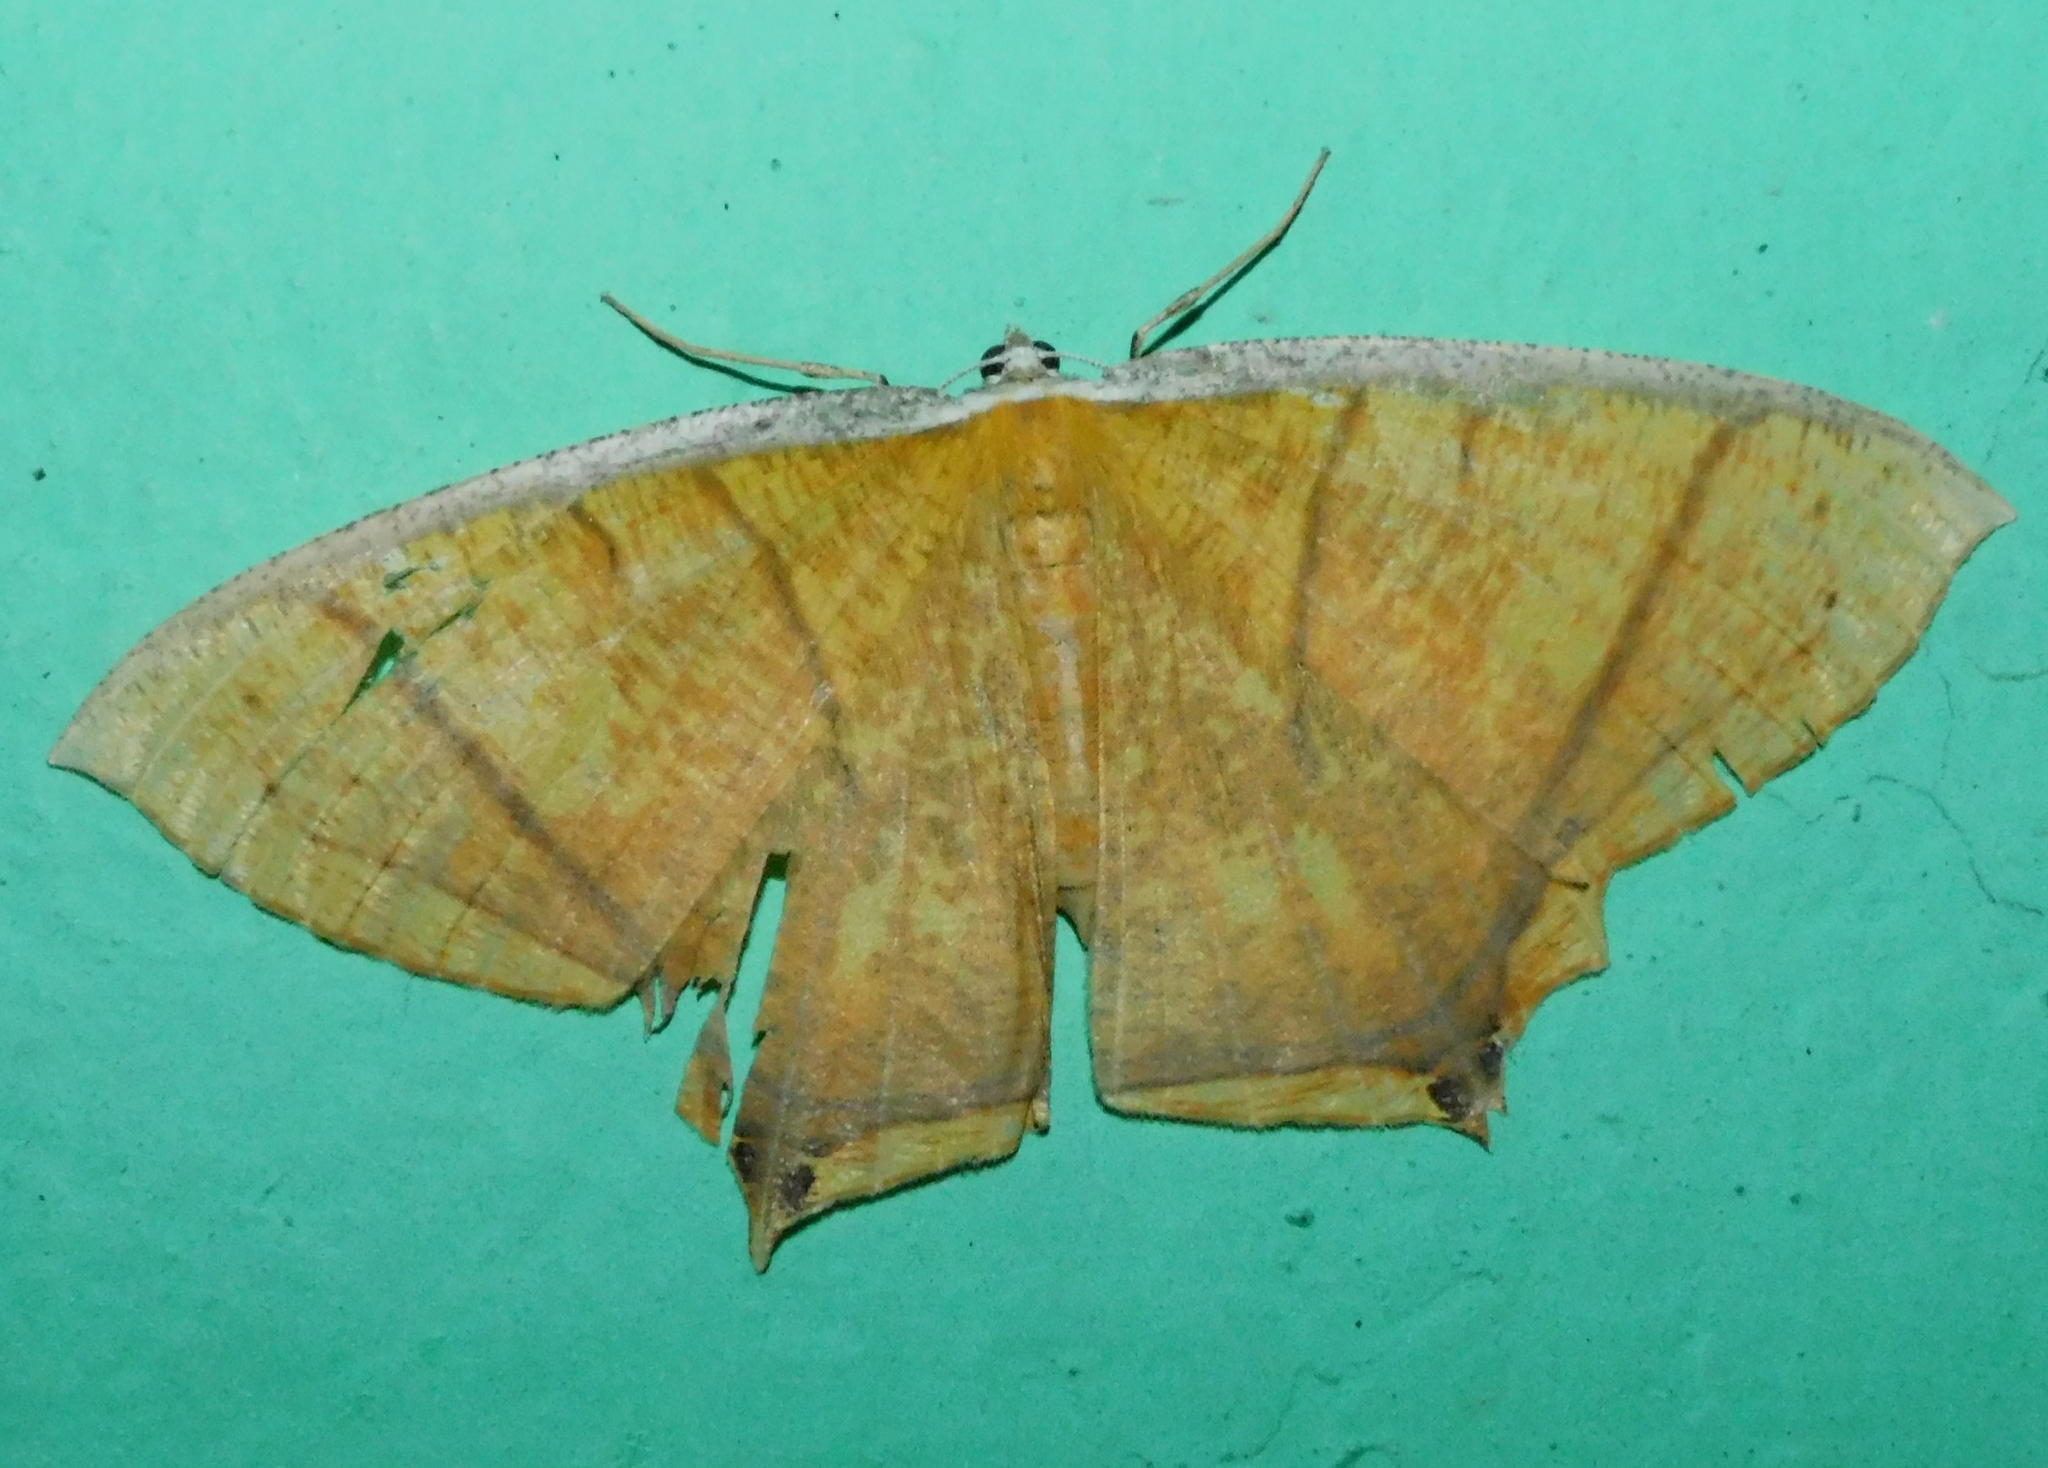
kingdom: Animalia
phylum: Arthropoda
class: Insecta
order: Lepidoptera
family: Geometridae
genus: Thinopteryx
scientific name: Thinopteryx crocoptera
